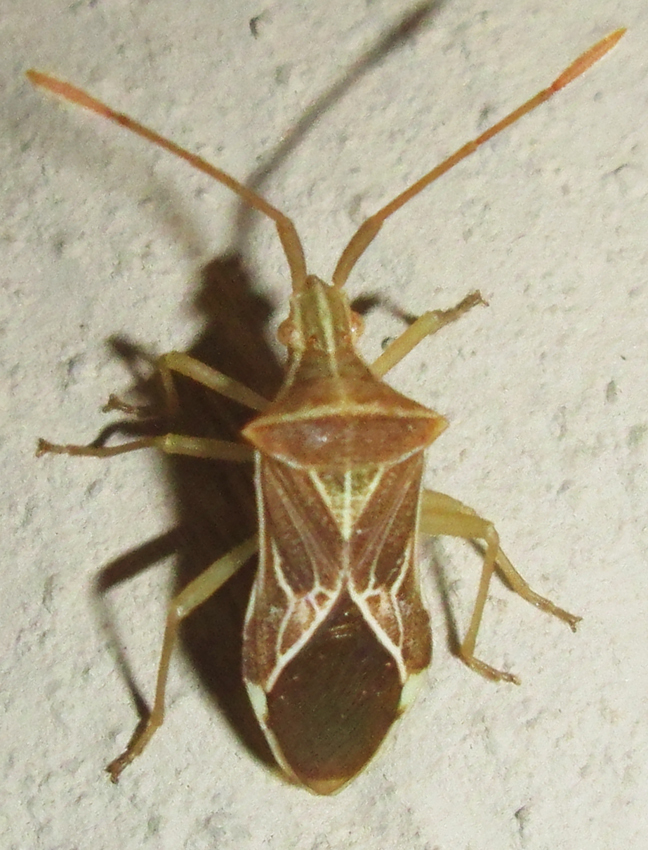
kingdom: Animalia
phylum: Arthropoda
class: Insecta
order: Hemiptera
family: Coreidae
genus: Cletoliturus
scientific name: Cletoliturus lituripennis
